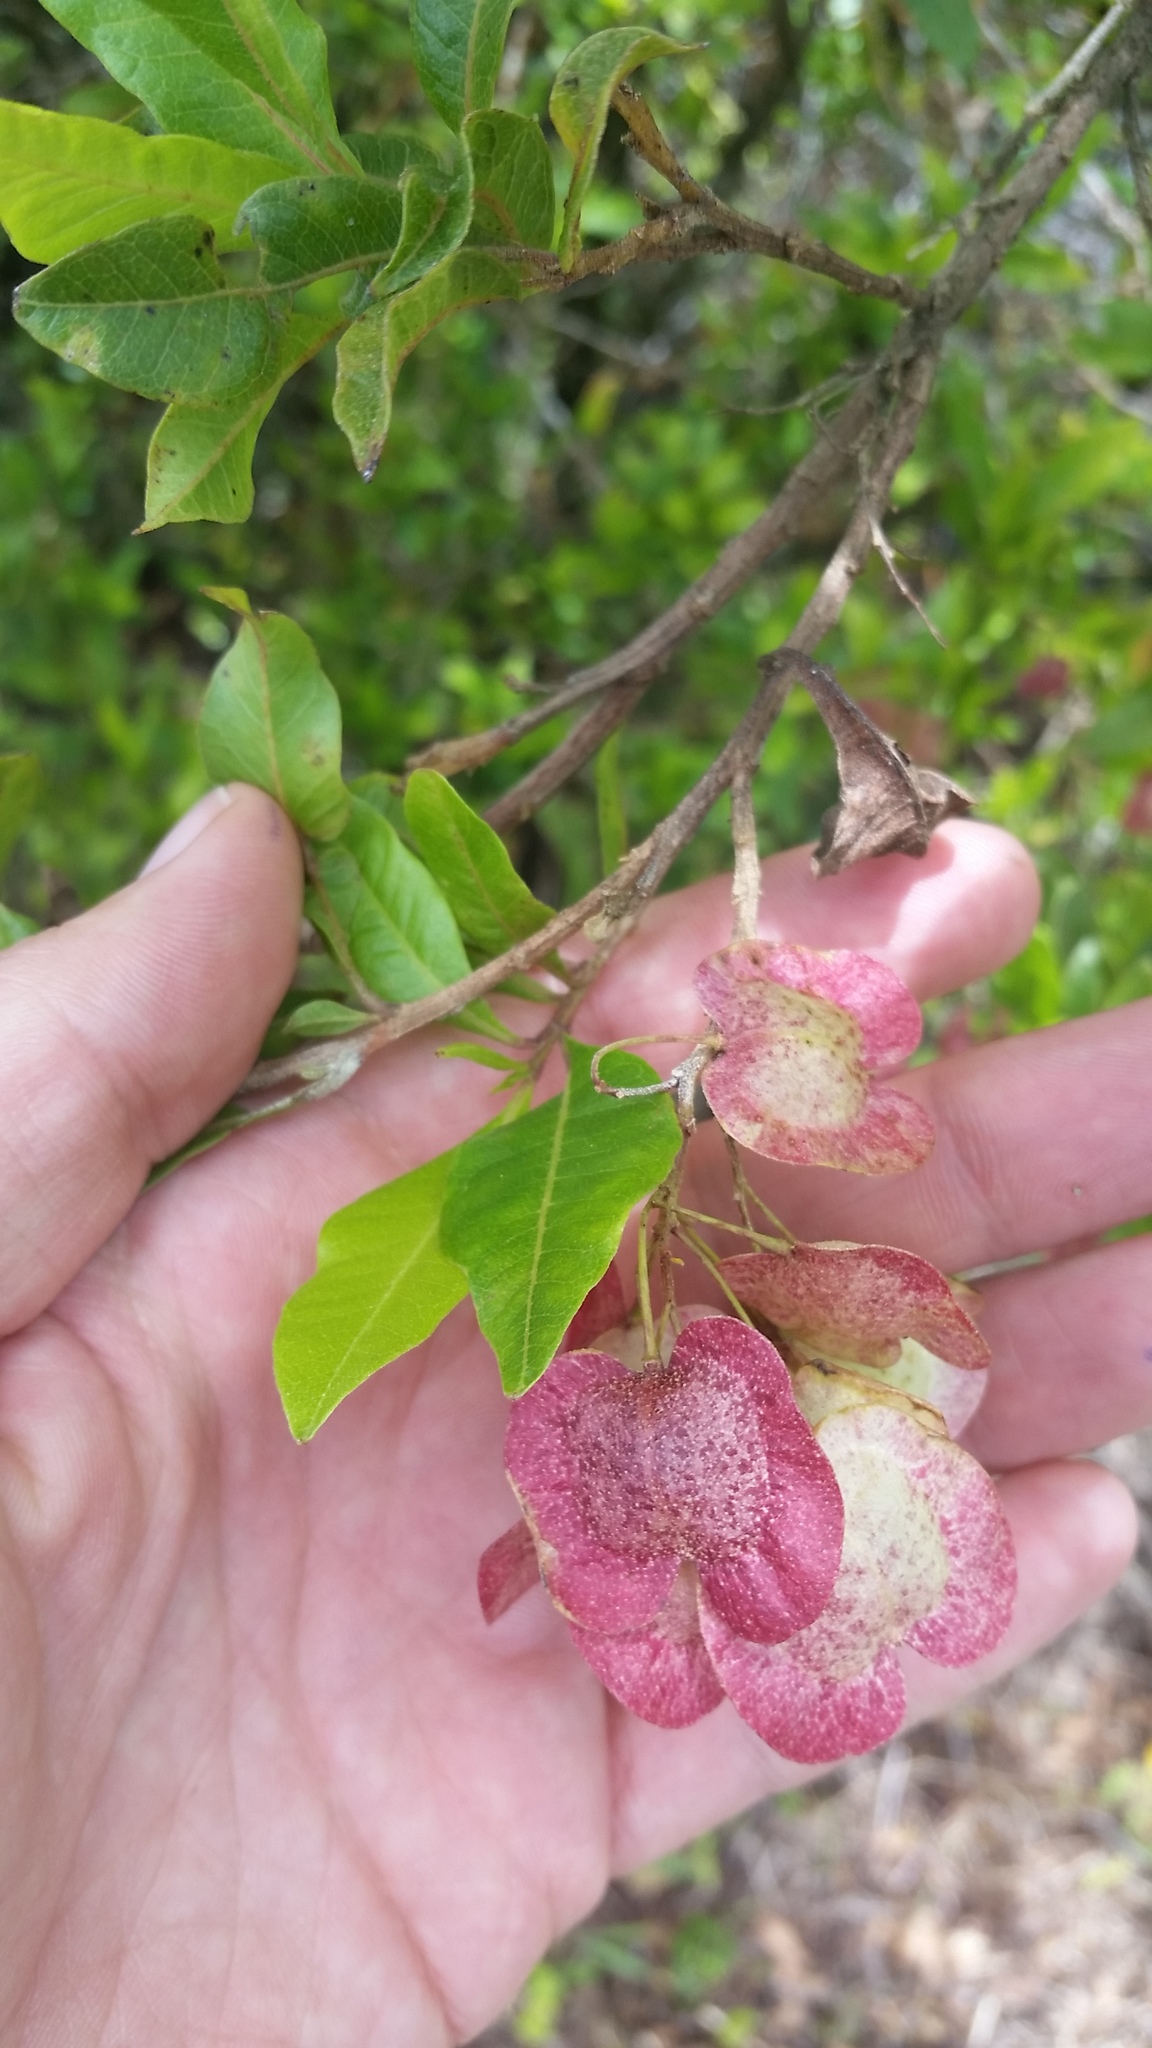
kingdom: Plantae
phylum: Tracheophyta
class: Magnoliopsida
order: Sapindales
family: Sapindaceae
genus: Dodonaea
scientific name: Dodonaea viscosa
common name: Hopbush
